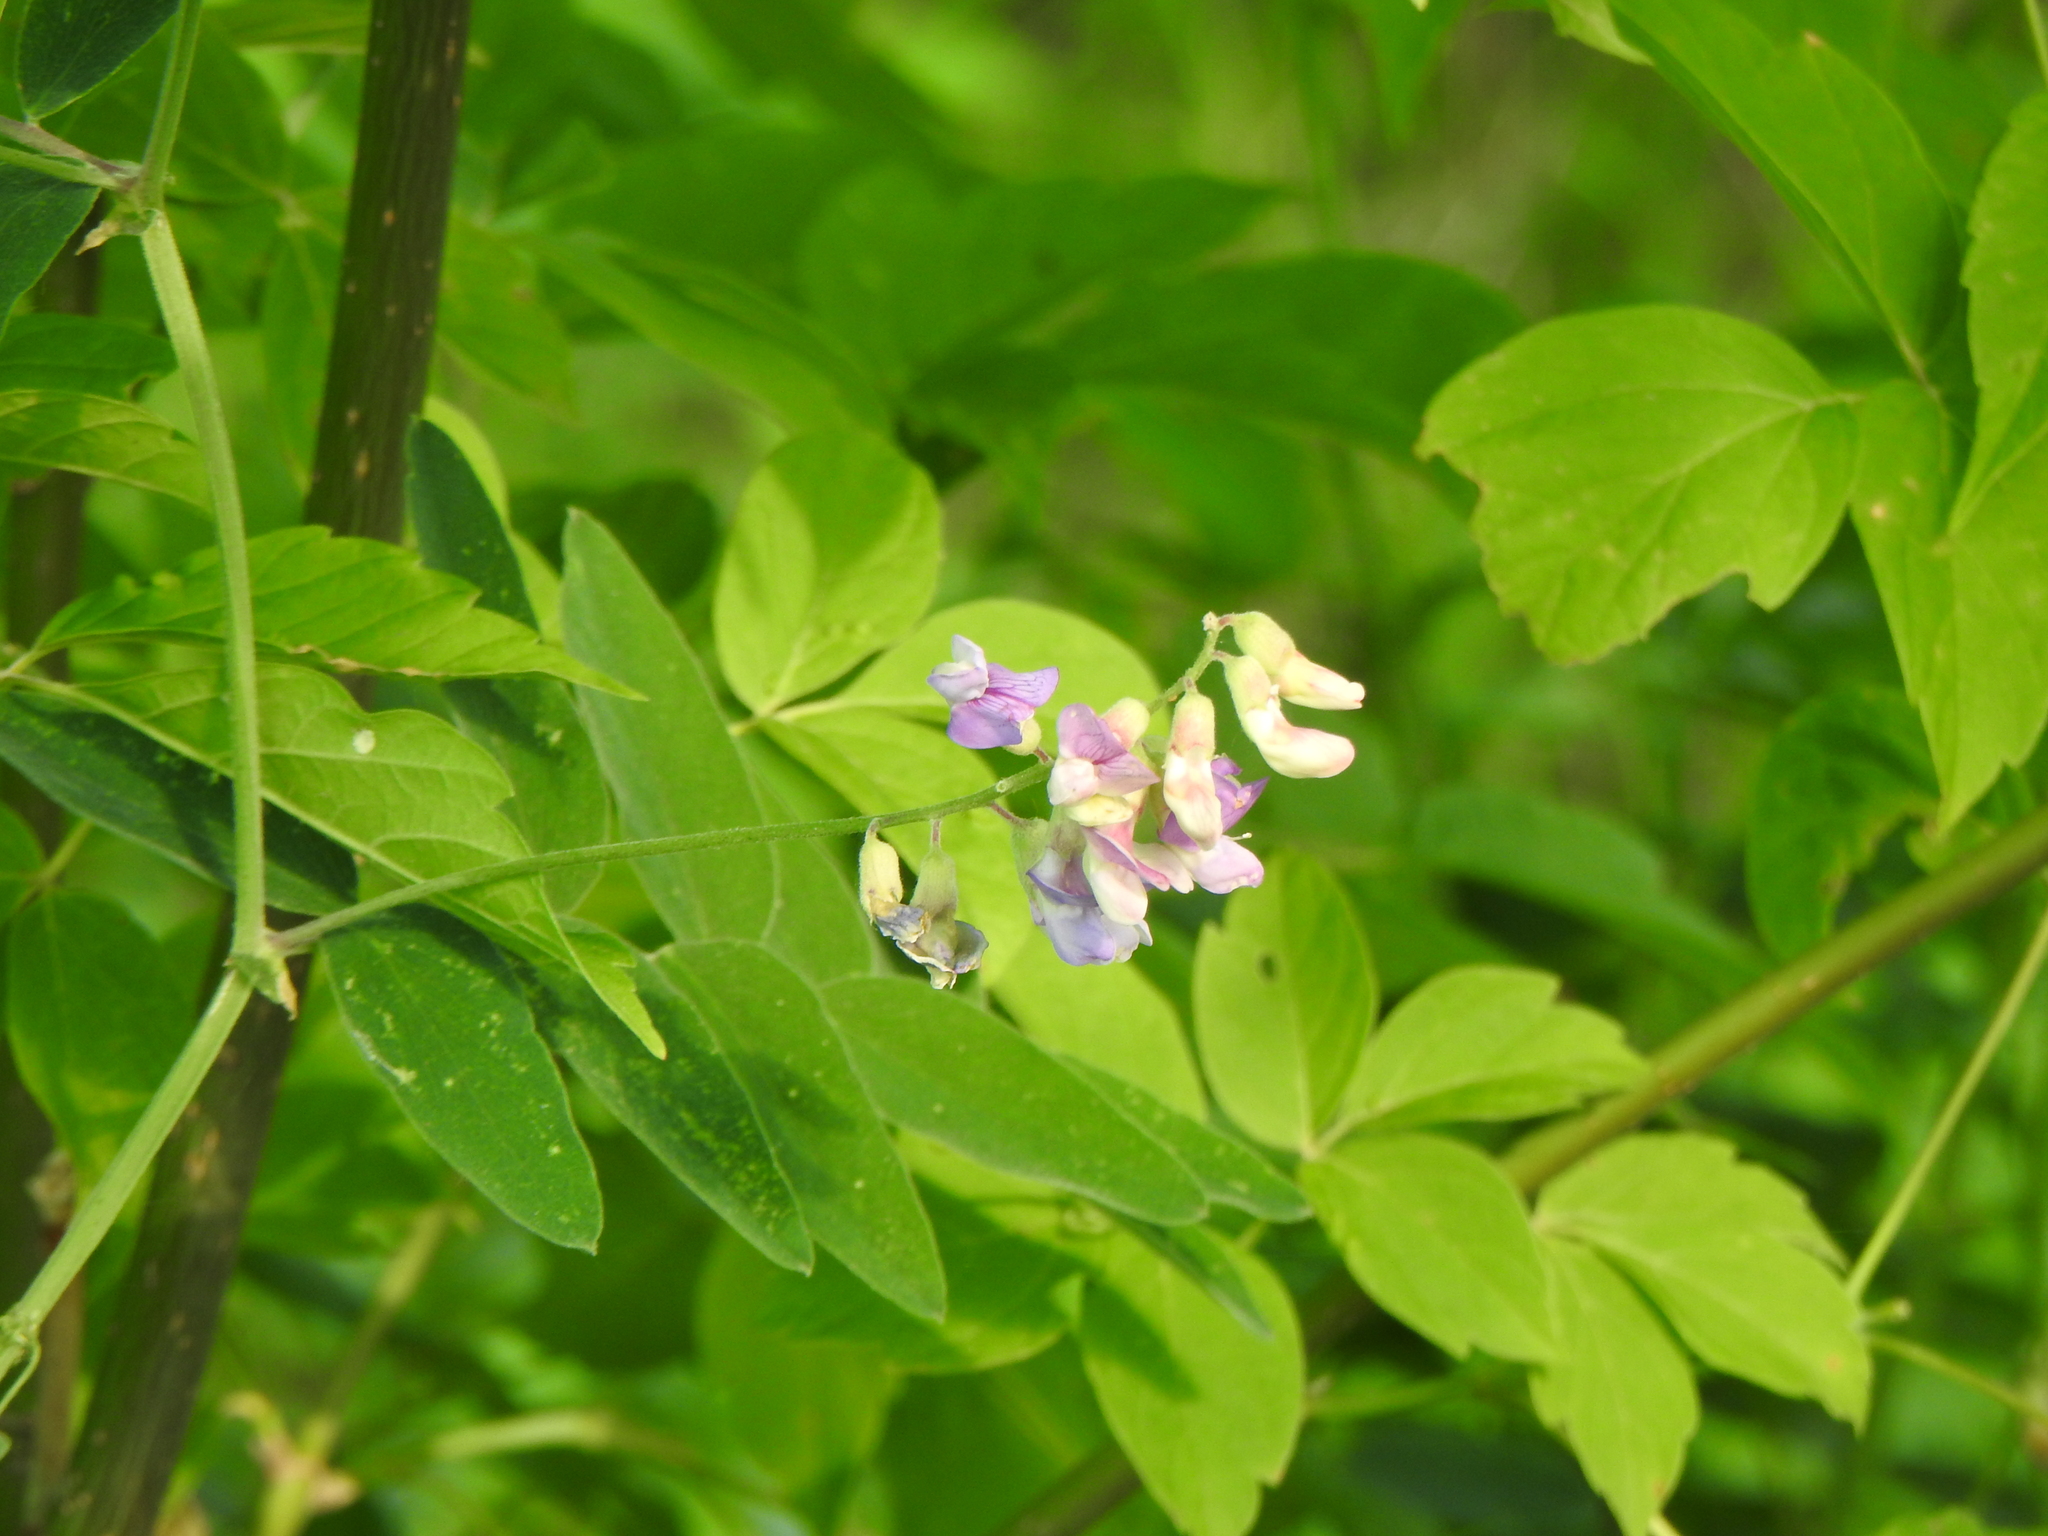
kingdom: Plantae
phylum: Tracheophyta
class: Magnoliopsida
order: Fabales
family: Fabaceae
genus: Lathyrus
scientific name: Lathyrus venosus
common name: Forest-pea
